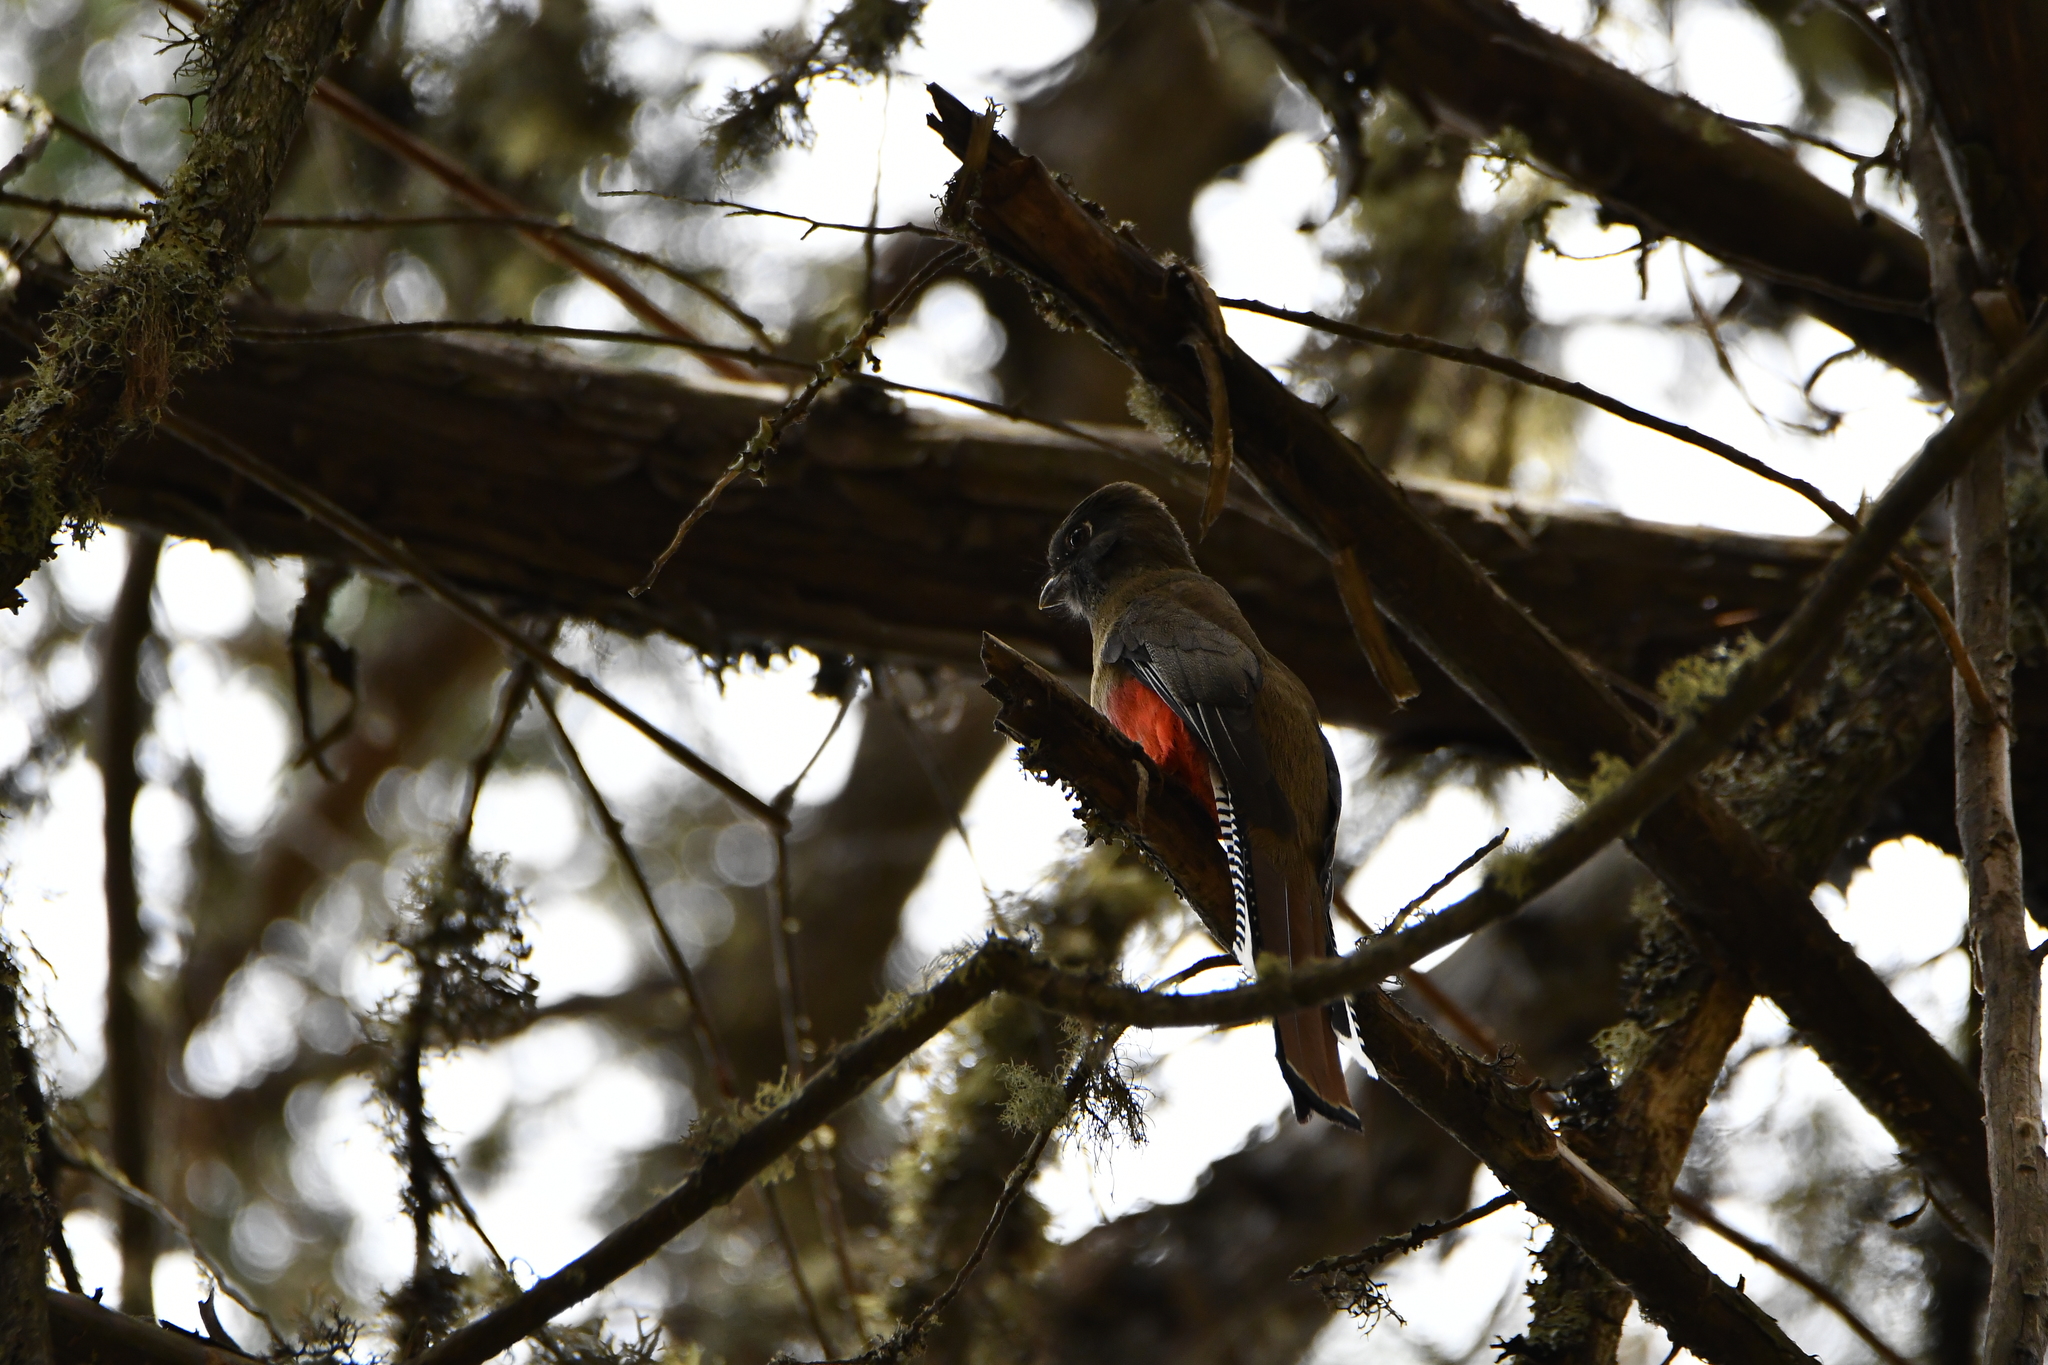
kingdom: Animalia
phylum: Chordata
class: Aves
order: Trogoniformes
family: Trogonidae
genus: Trogon
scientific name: Trogon mexicanus
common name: Mountain trogon
